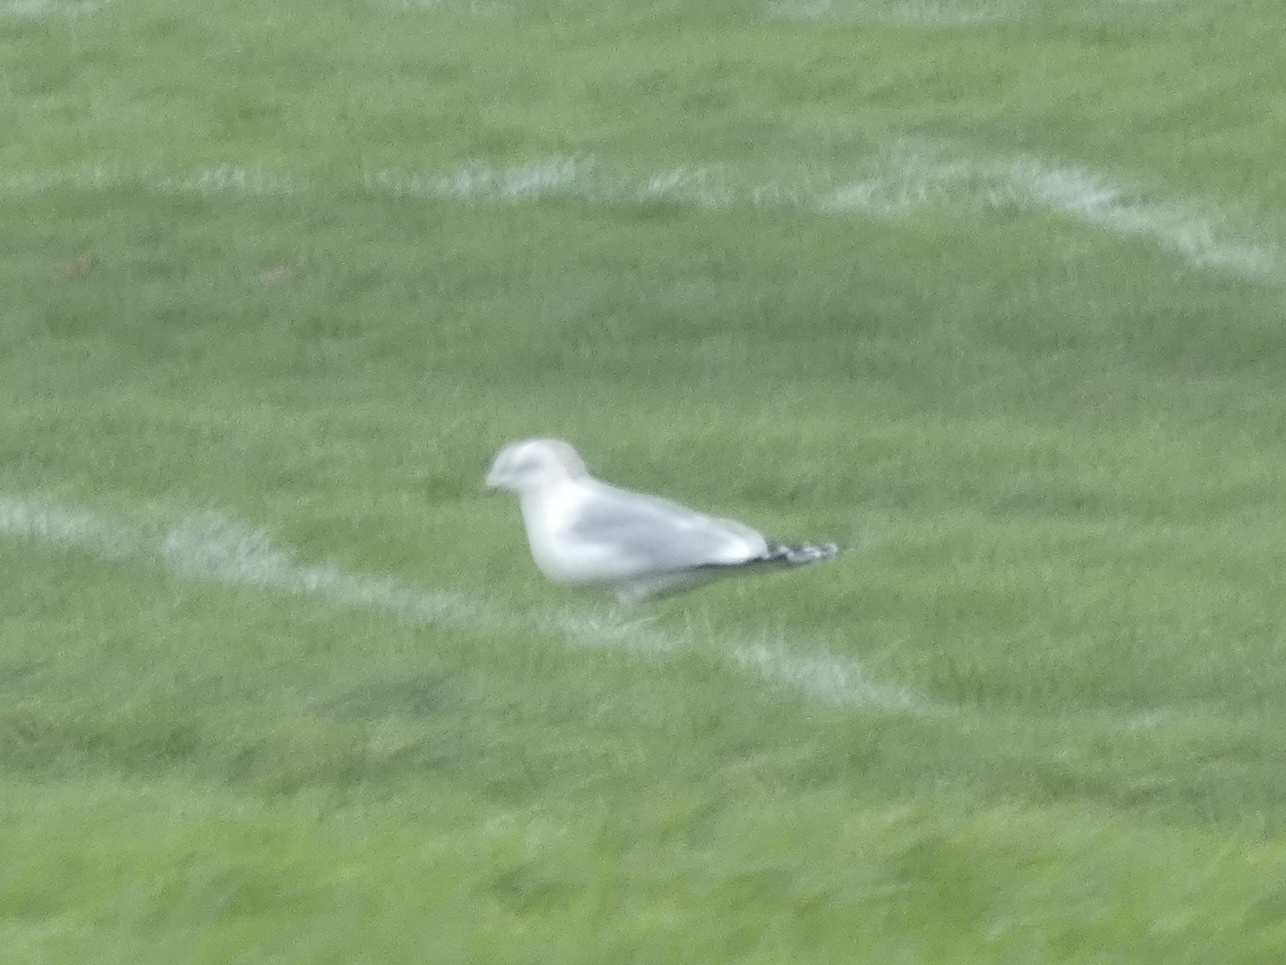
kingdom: Animalia
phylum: Chordata
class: Aves
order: Charadriiformes
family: Laridae
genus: Larus
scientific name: Larus canus
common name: Mew gull
